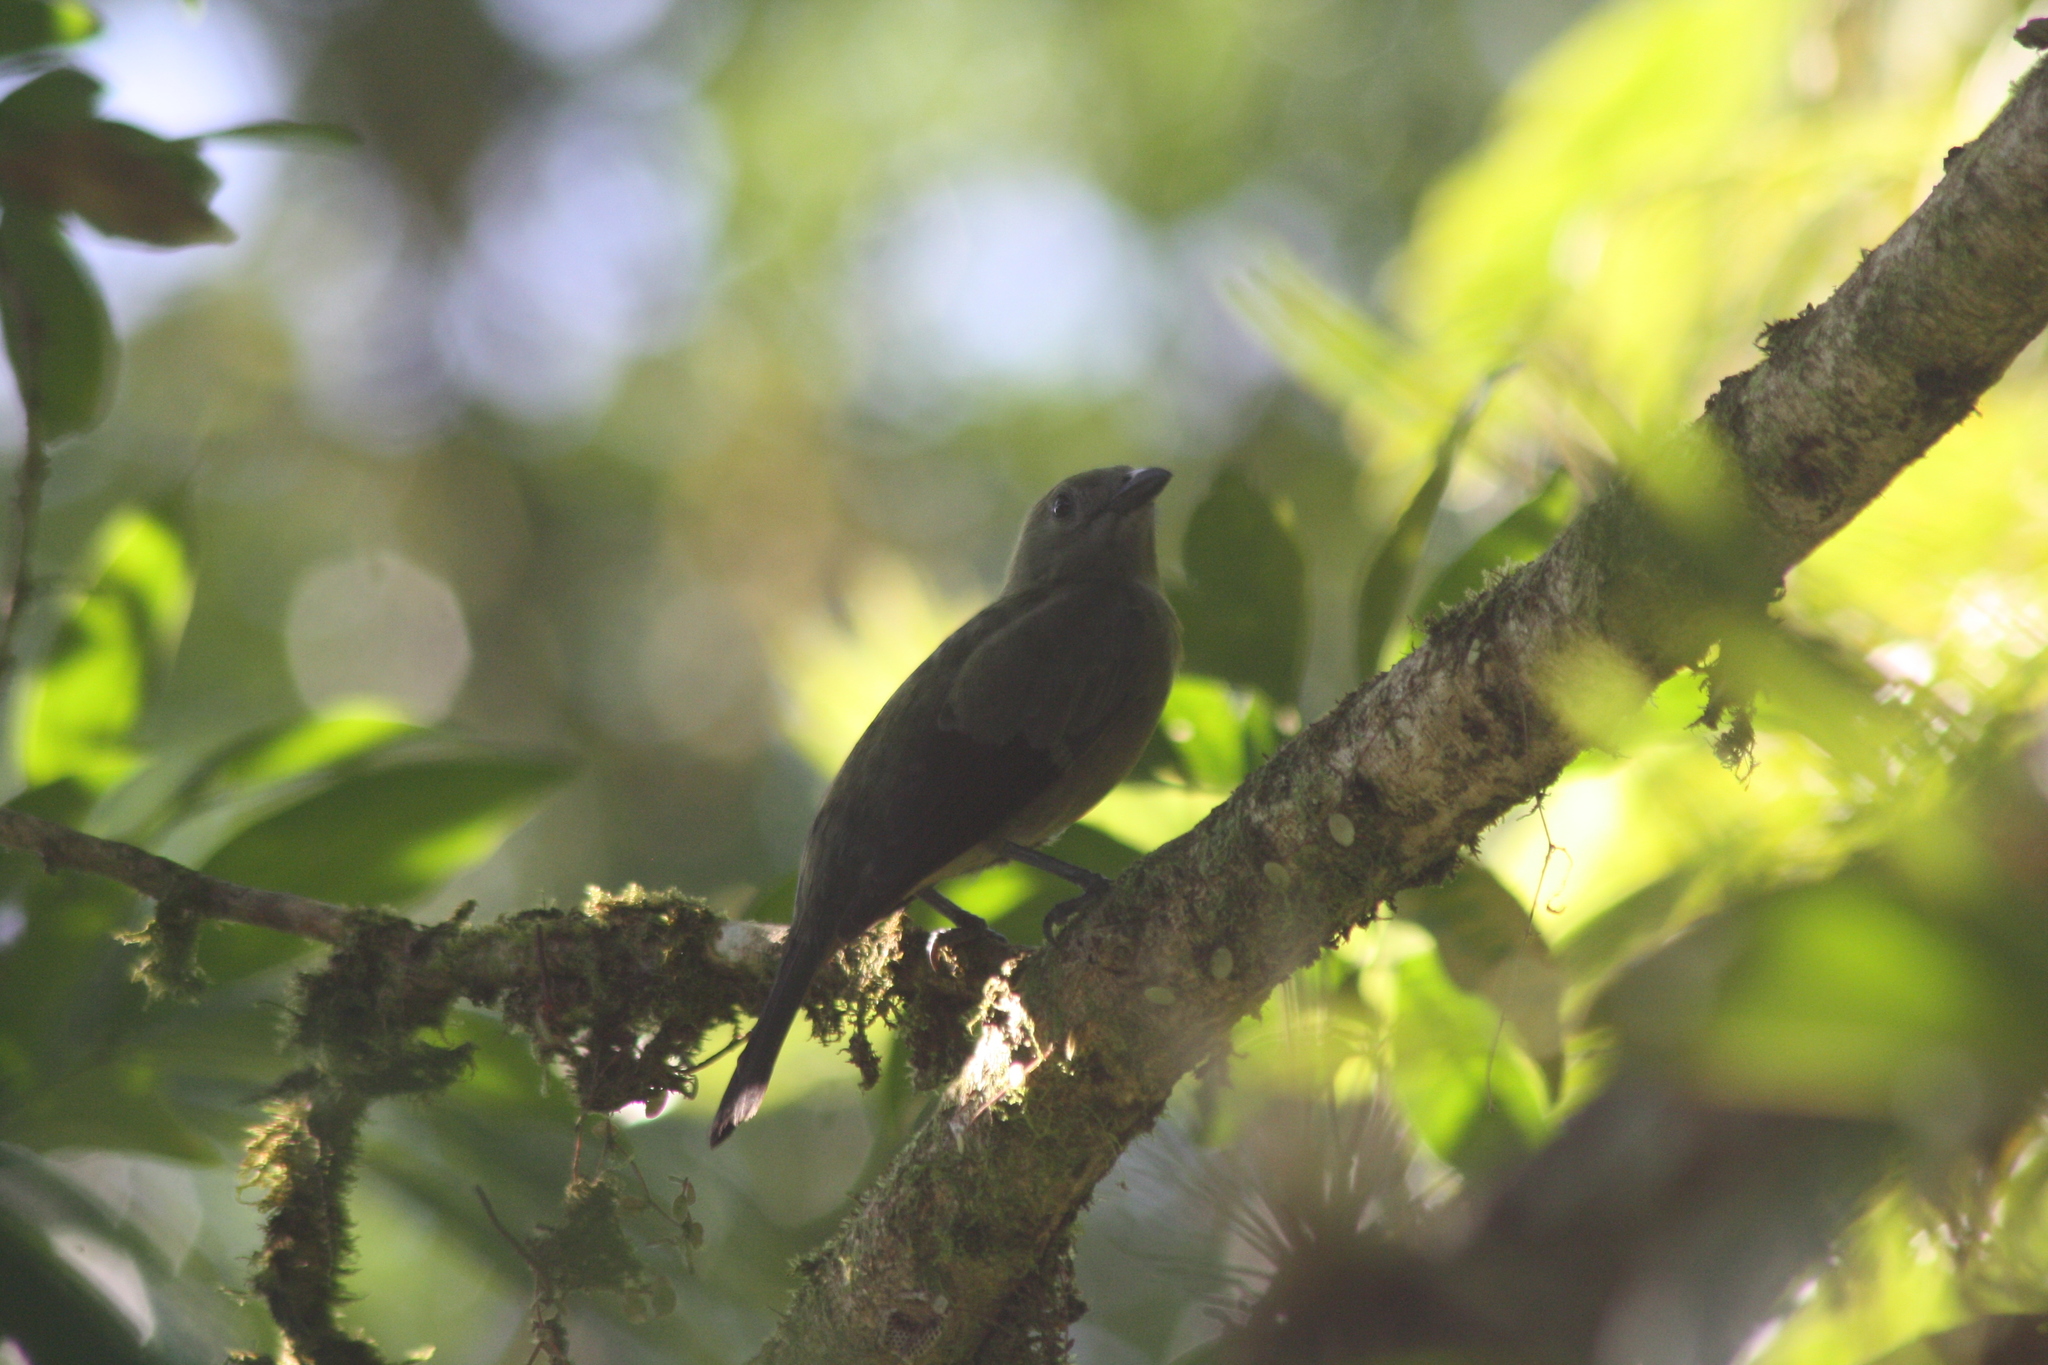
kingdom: Animalia
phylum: Chordata
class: Aves
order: Passeriformes
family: Thraupidae
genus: Thraupis
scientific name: Thraupis palmarum
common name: Palm tanager
